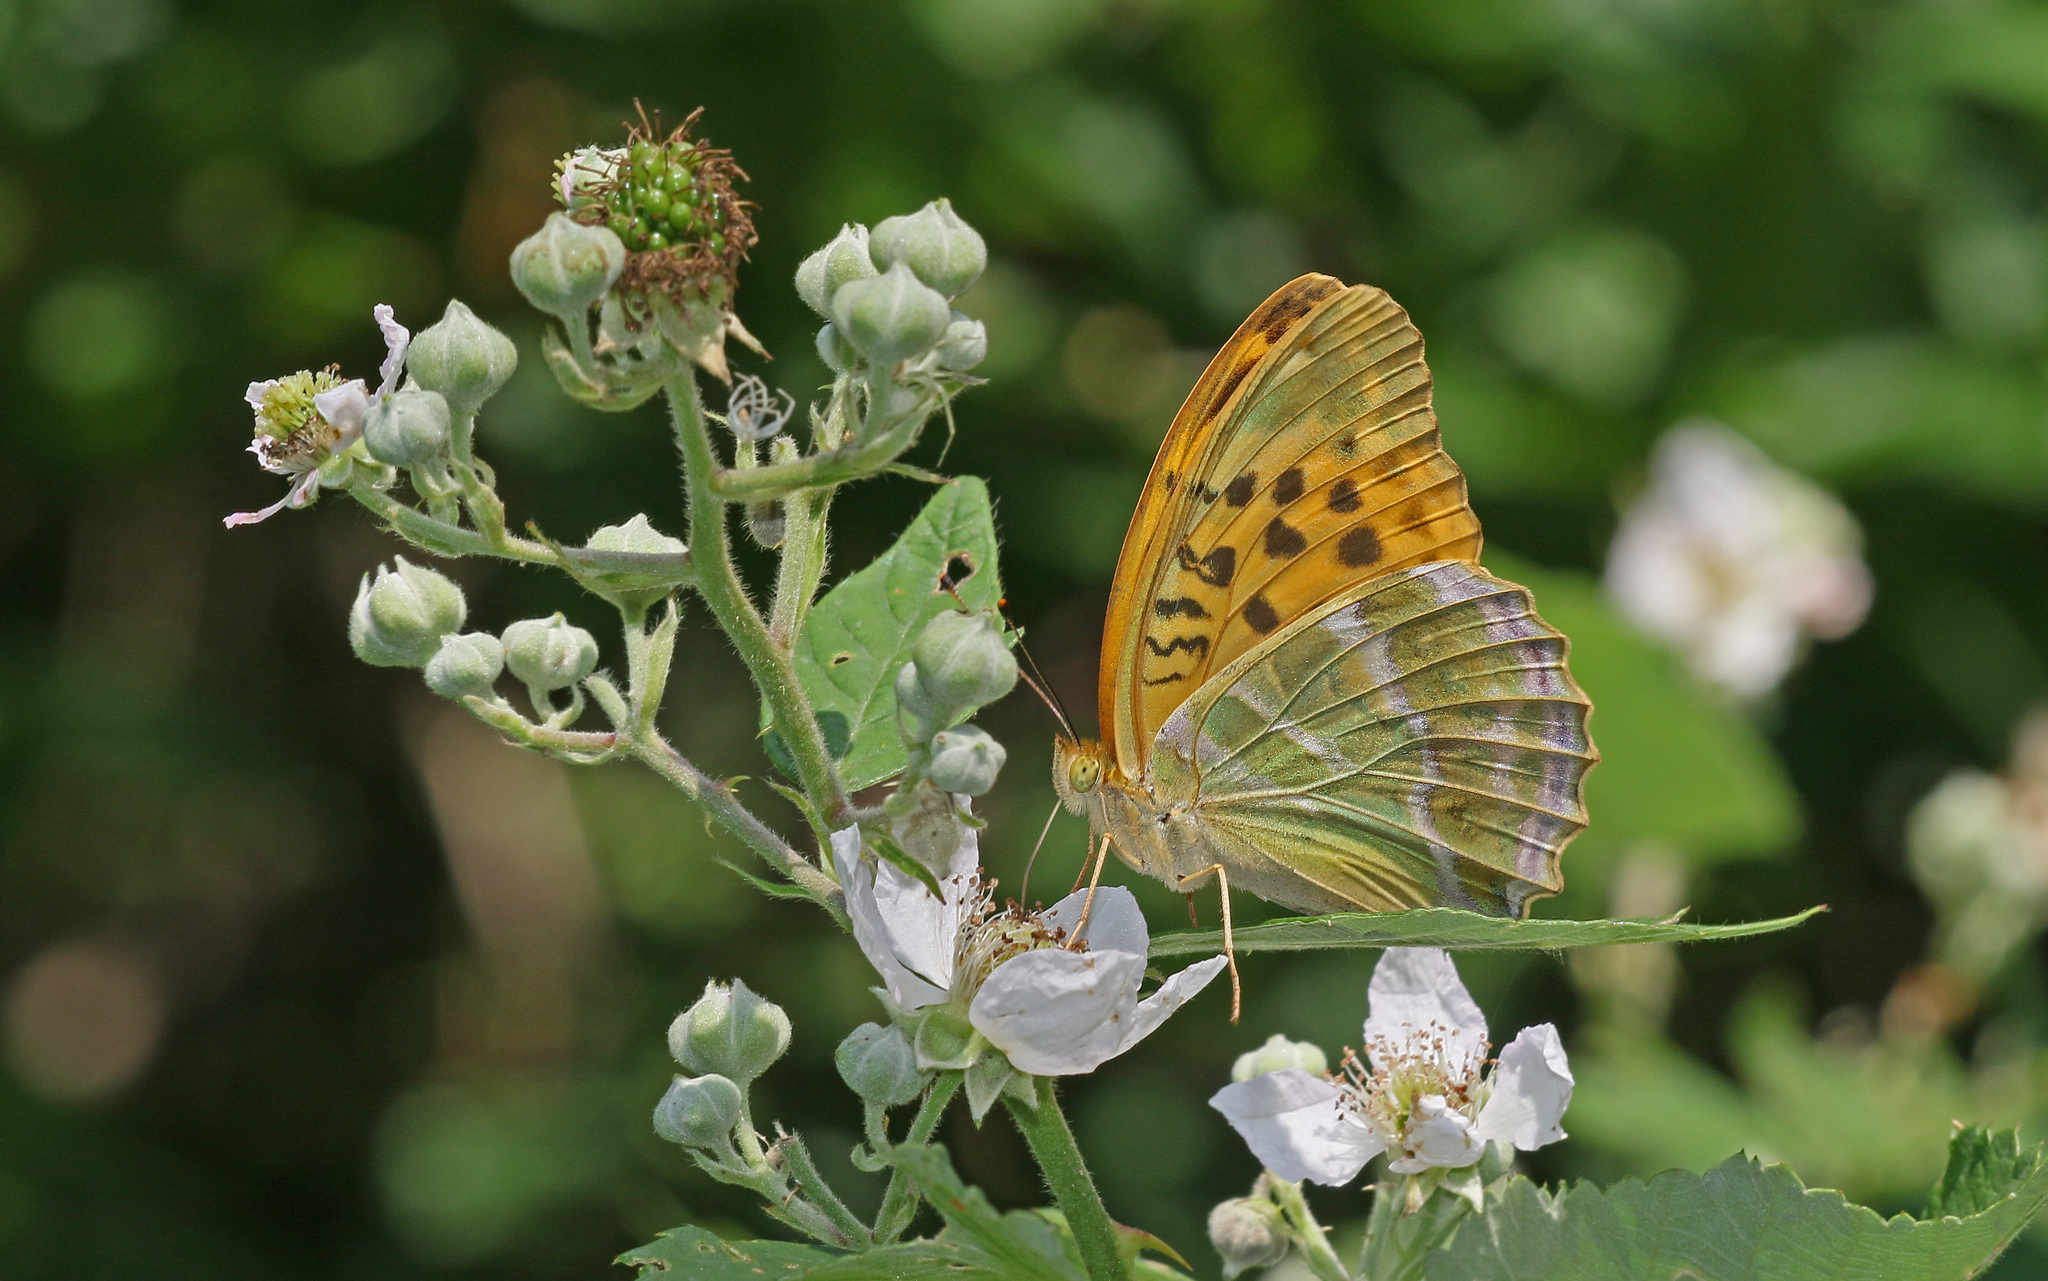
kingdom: Animalia
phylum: Arthropoda
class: Insecta
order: Lepidoptera
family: Nymphalidae
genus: Argynnis
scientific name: Argynnis paphia
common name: Silver-washed fritillary
